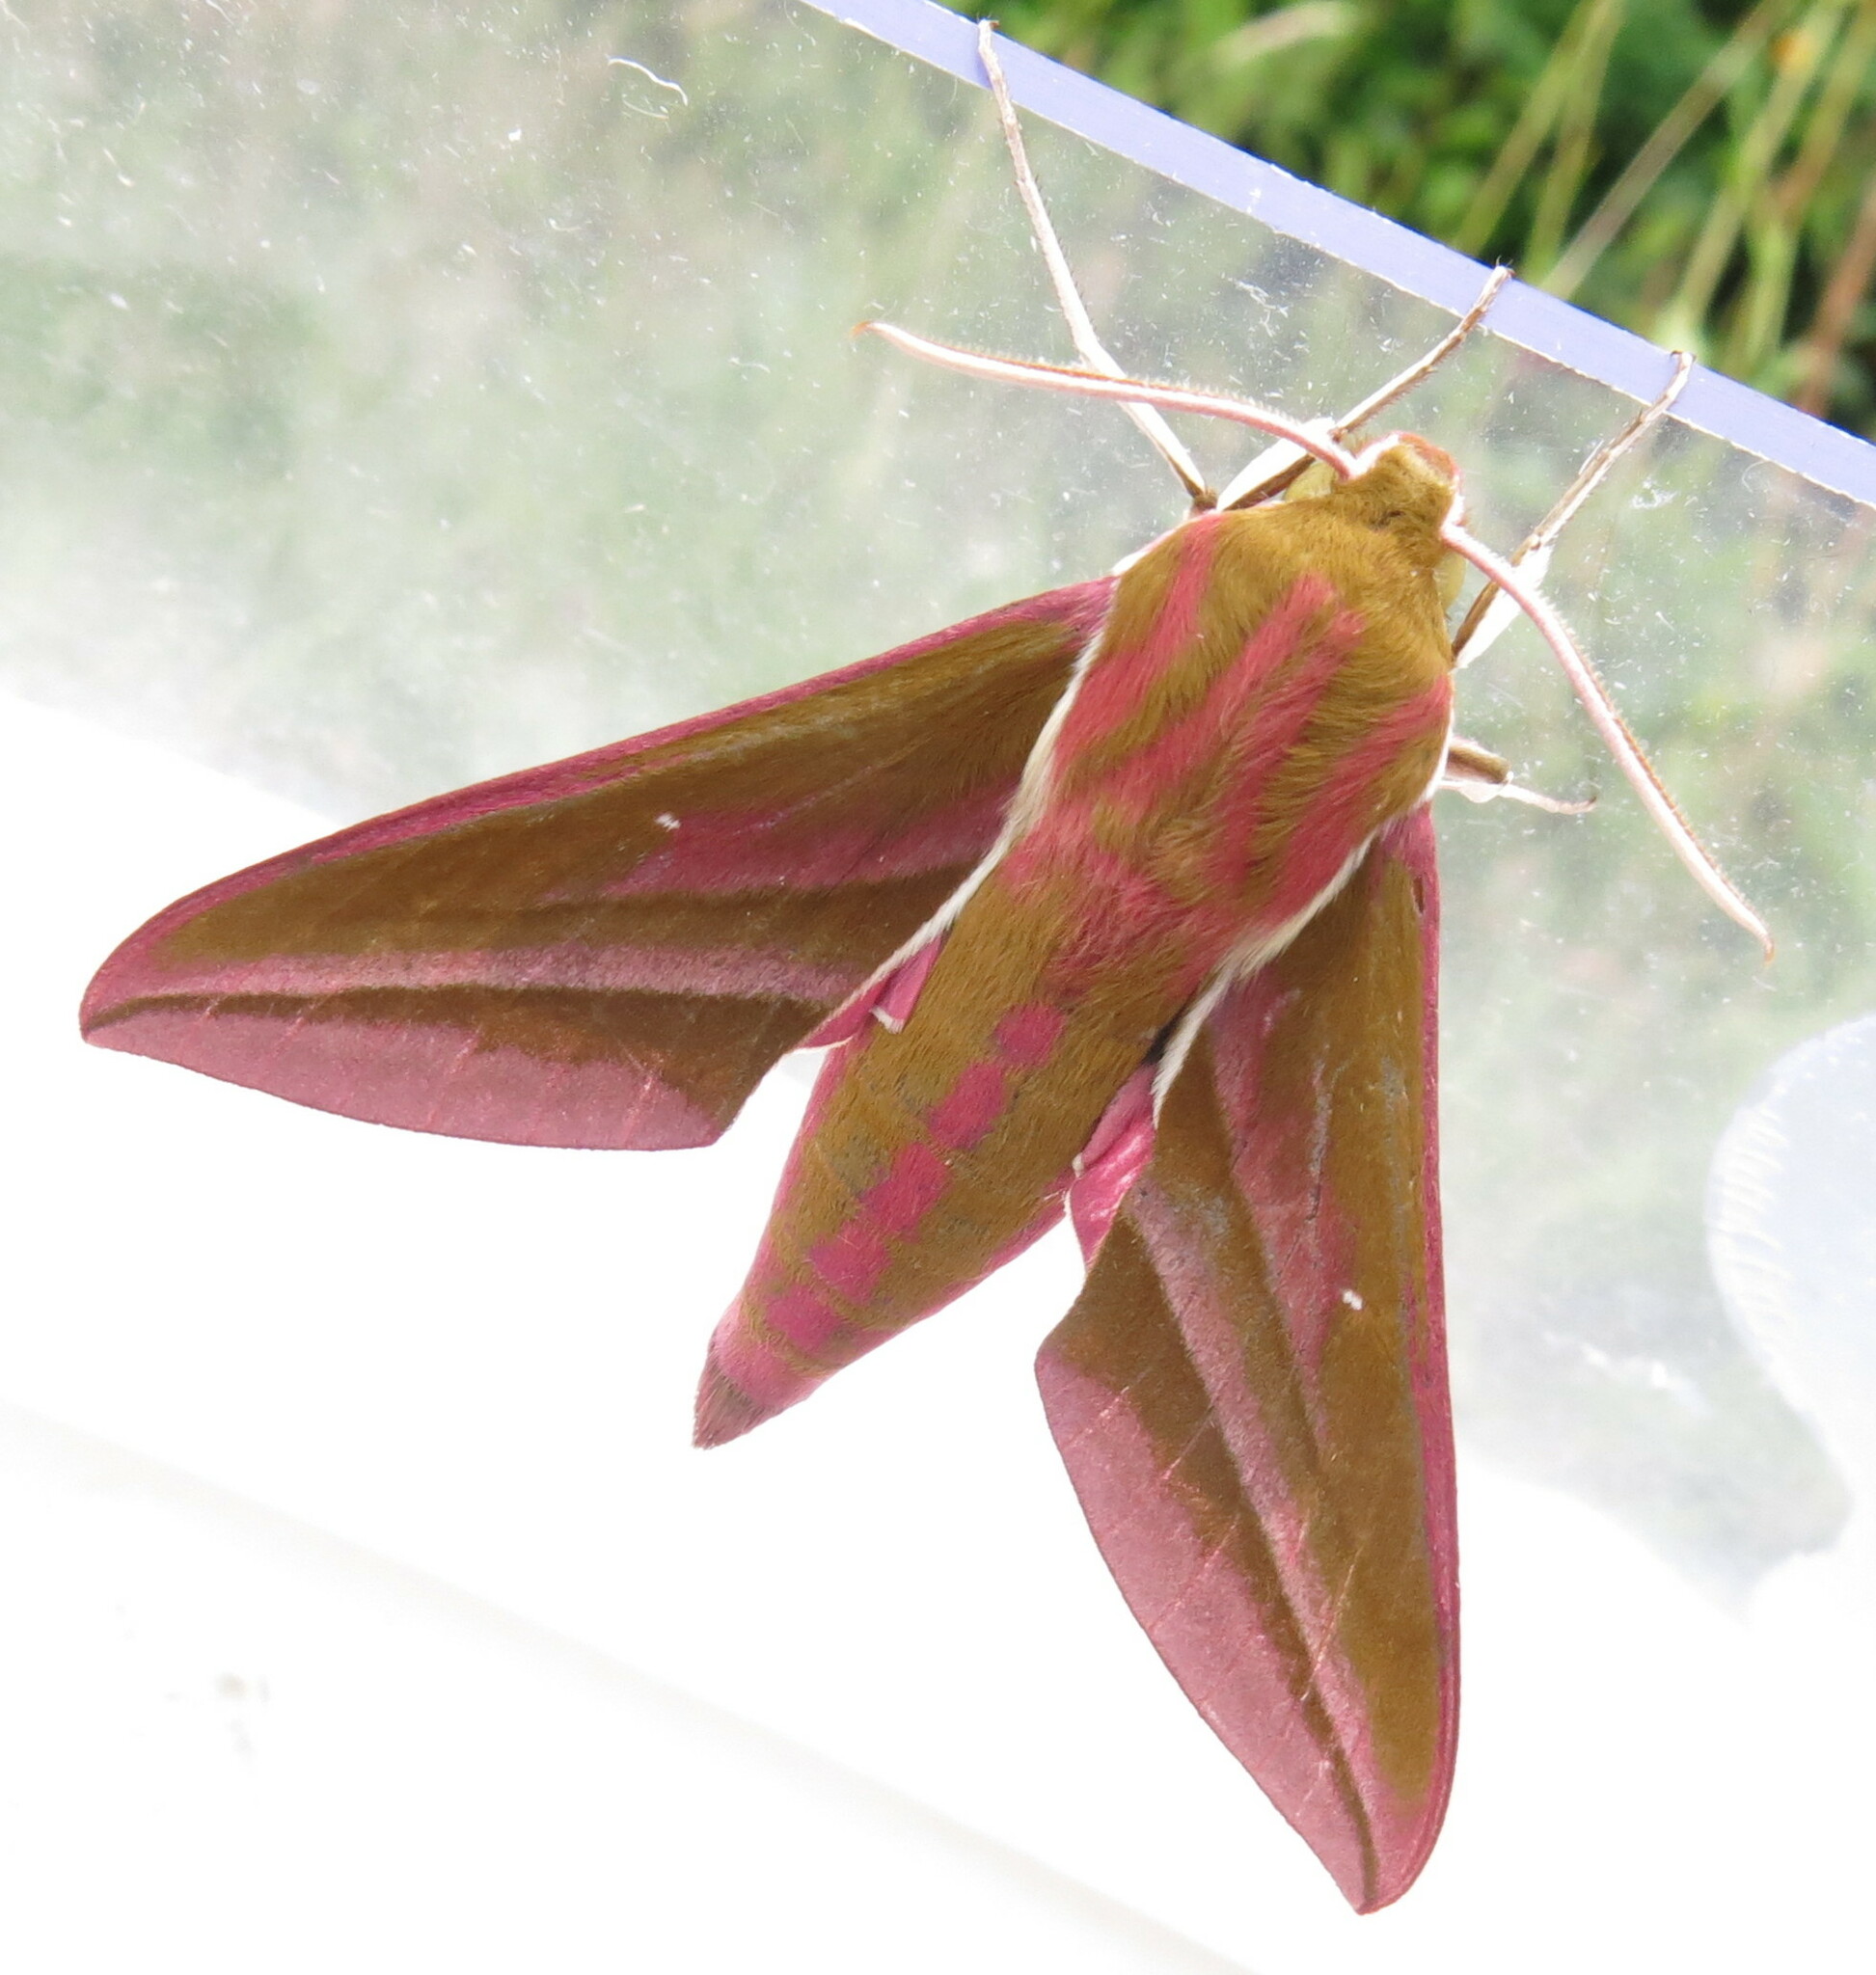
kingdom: Animalia
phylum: Arthropoda
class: Insecta
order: Lepidoptera
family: Sphingidae
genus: Deilephila
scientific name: Deilephila elpenor
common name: Elephant hawk-moth
